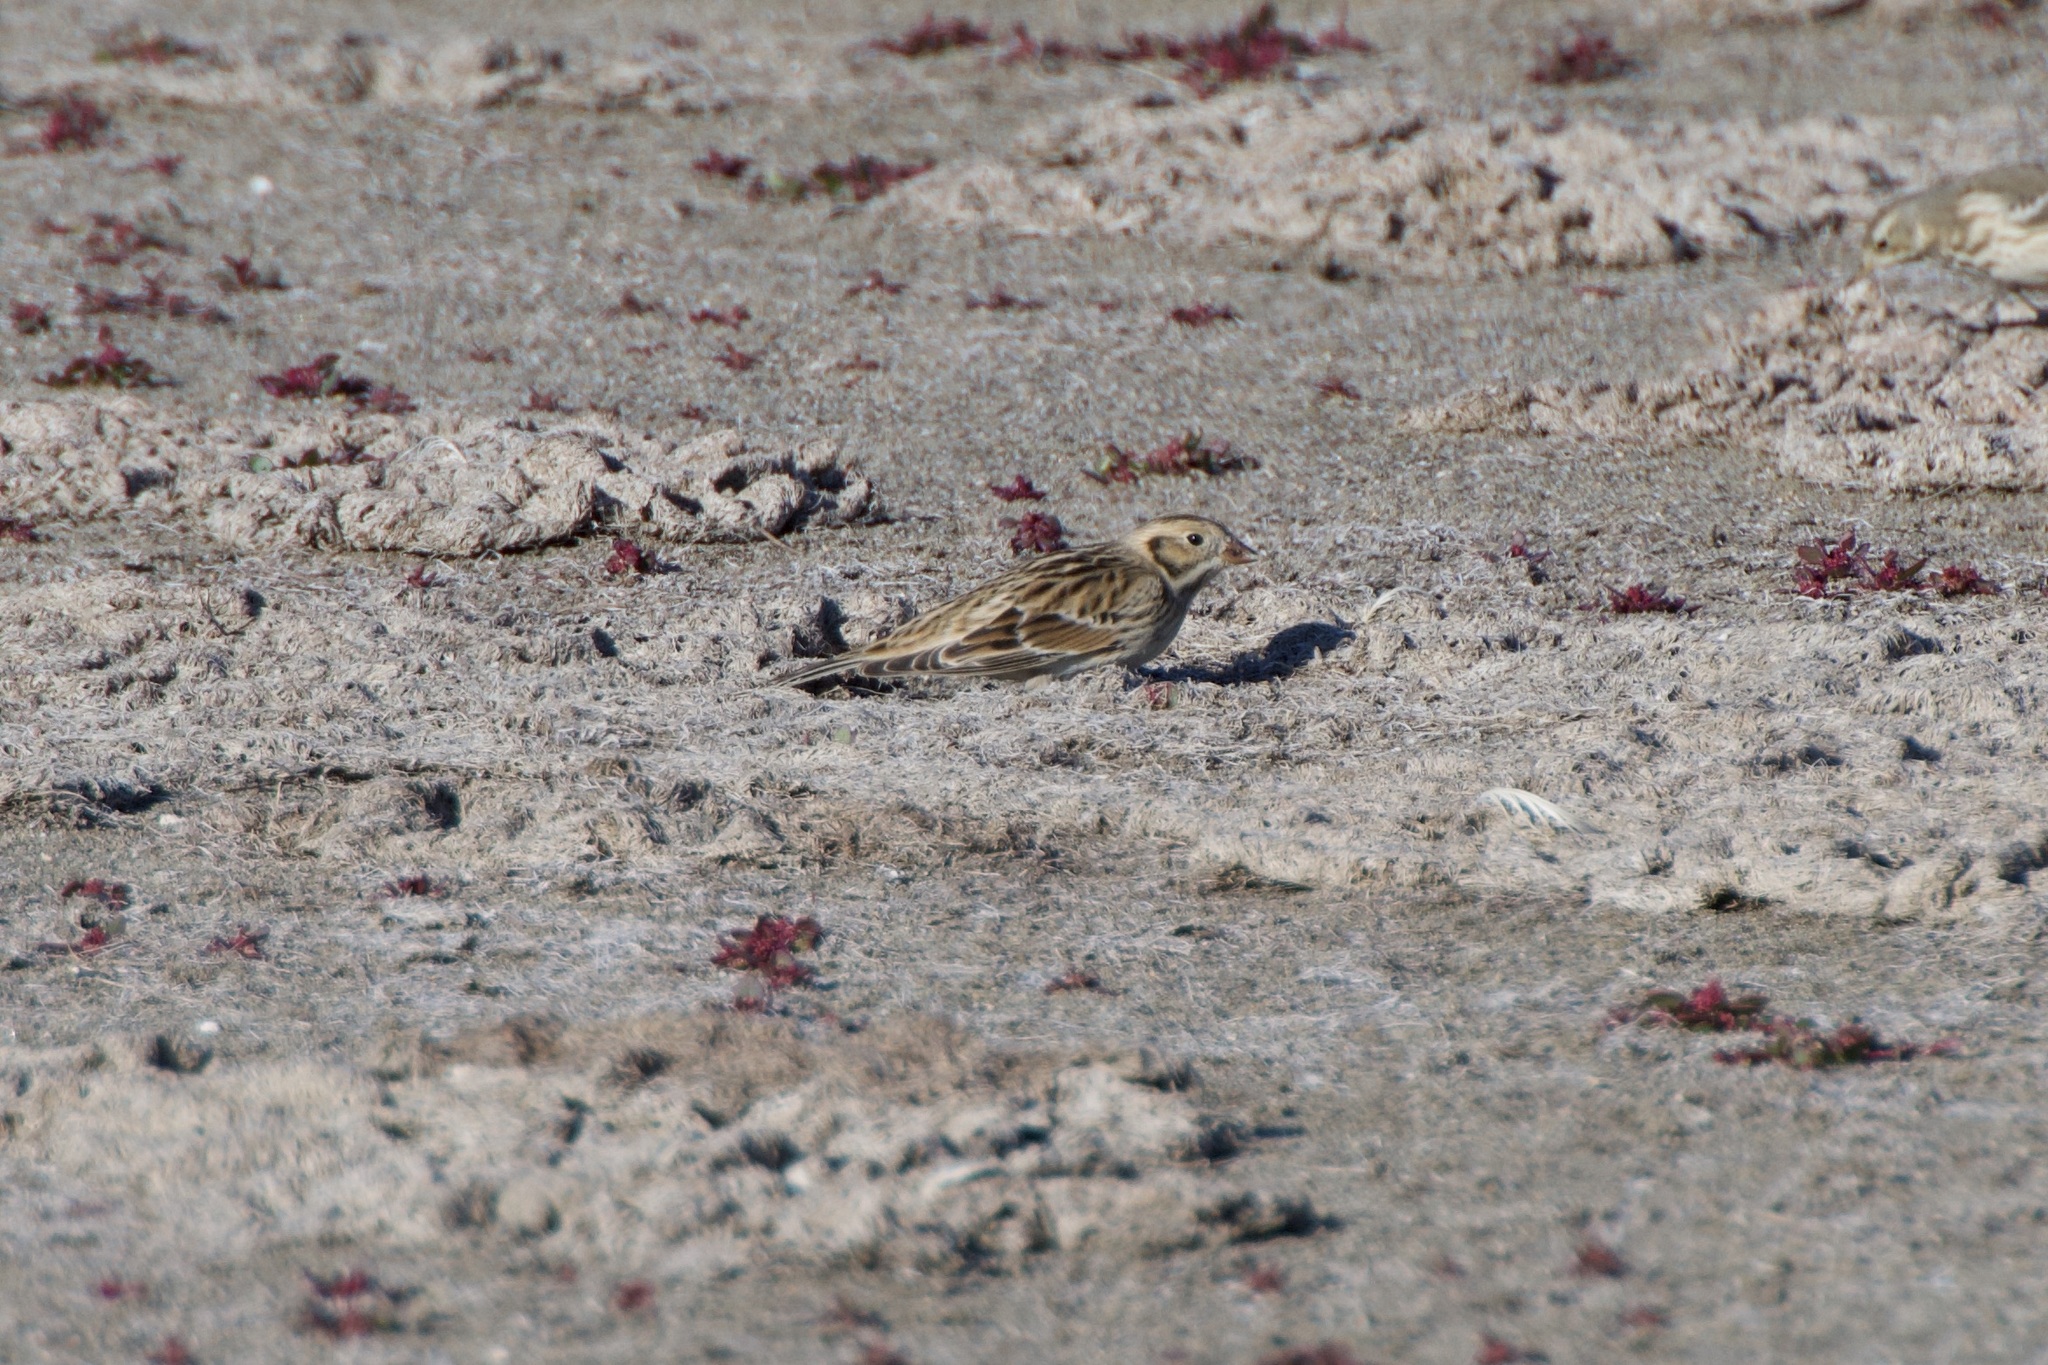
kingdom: Animalia
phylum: Chordata
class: Aves
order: Passeriformes
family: Calcariidae
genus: Calcarius
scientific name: Calcarius lapponicus
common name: Lapland longspur
